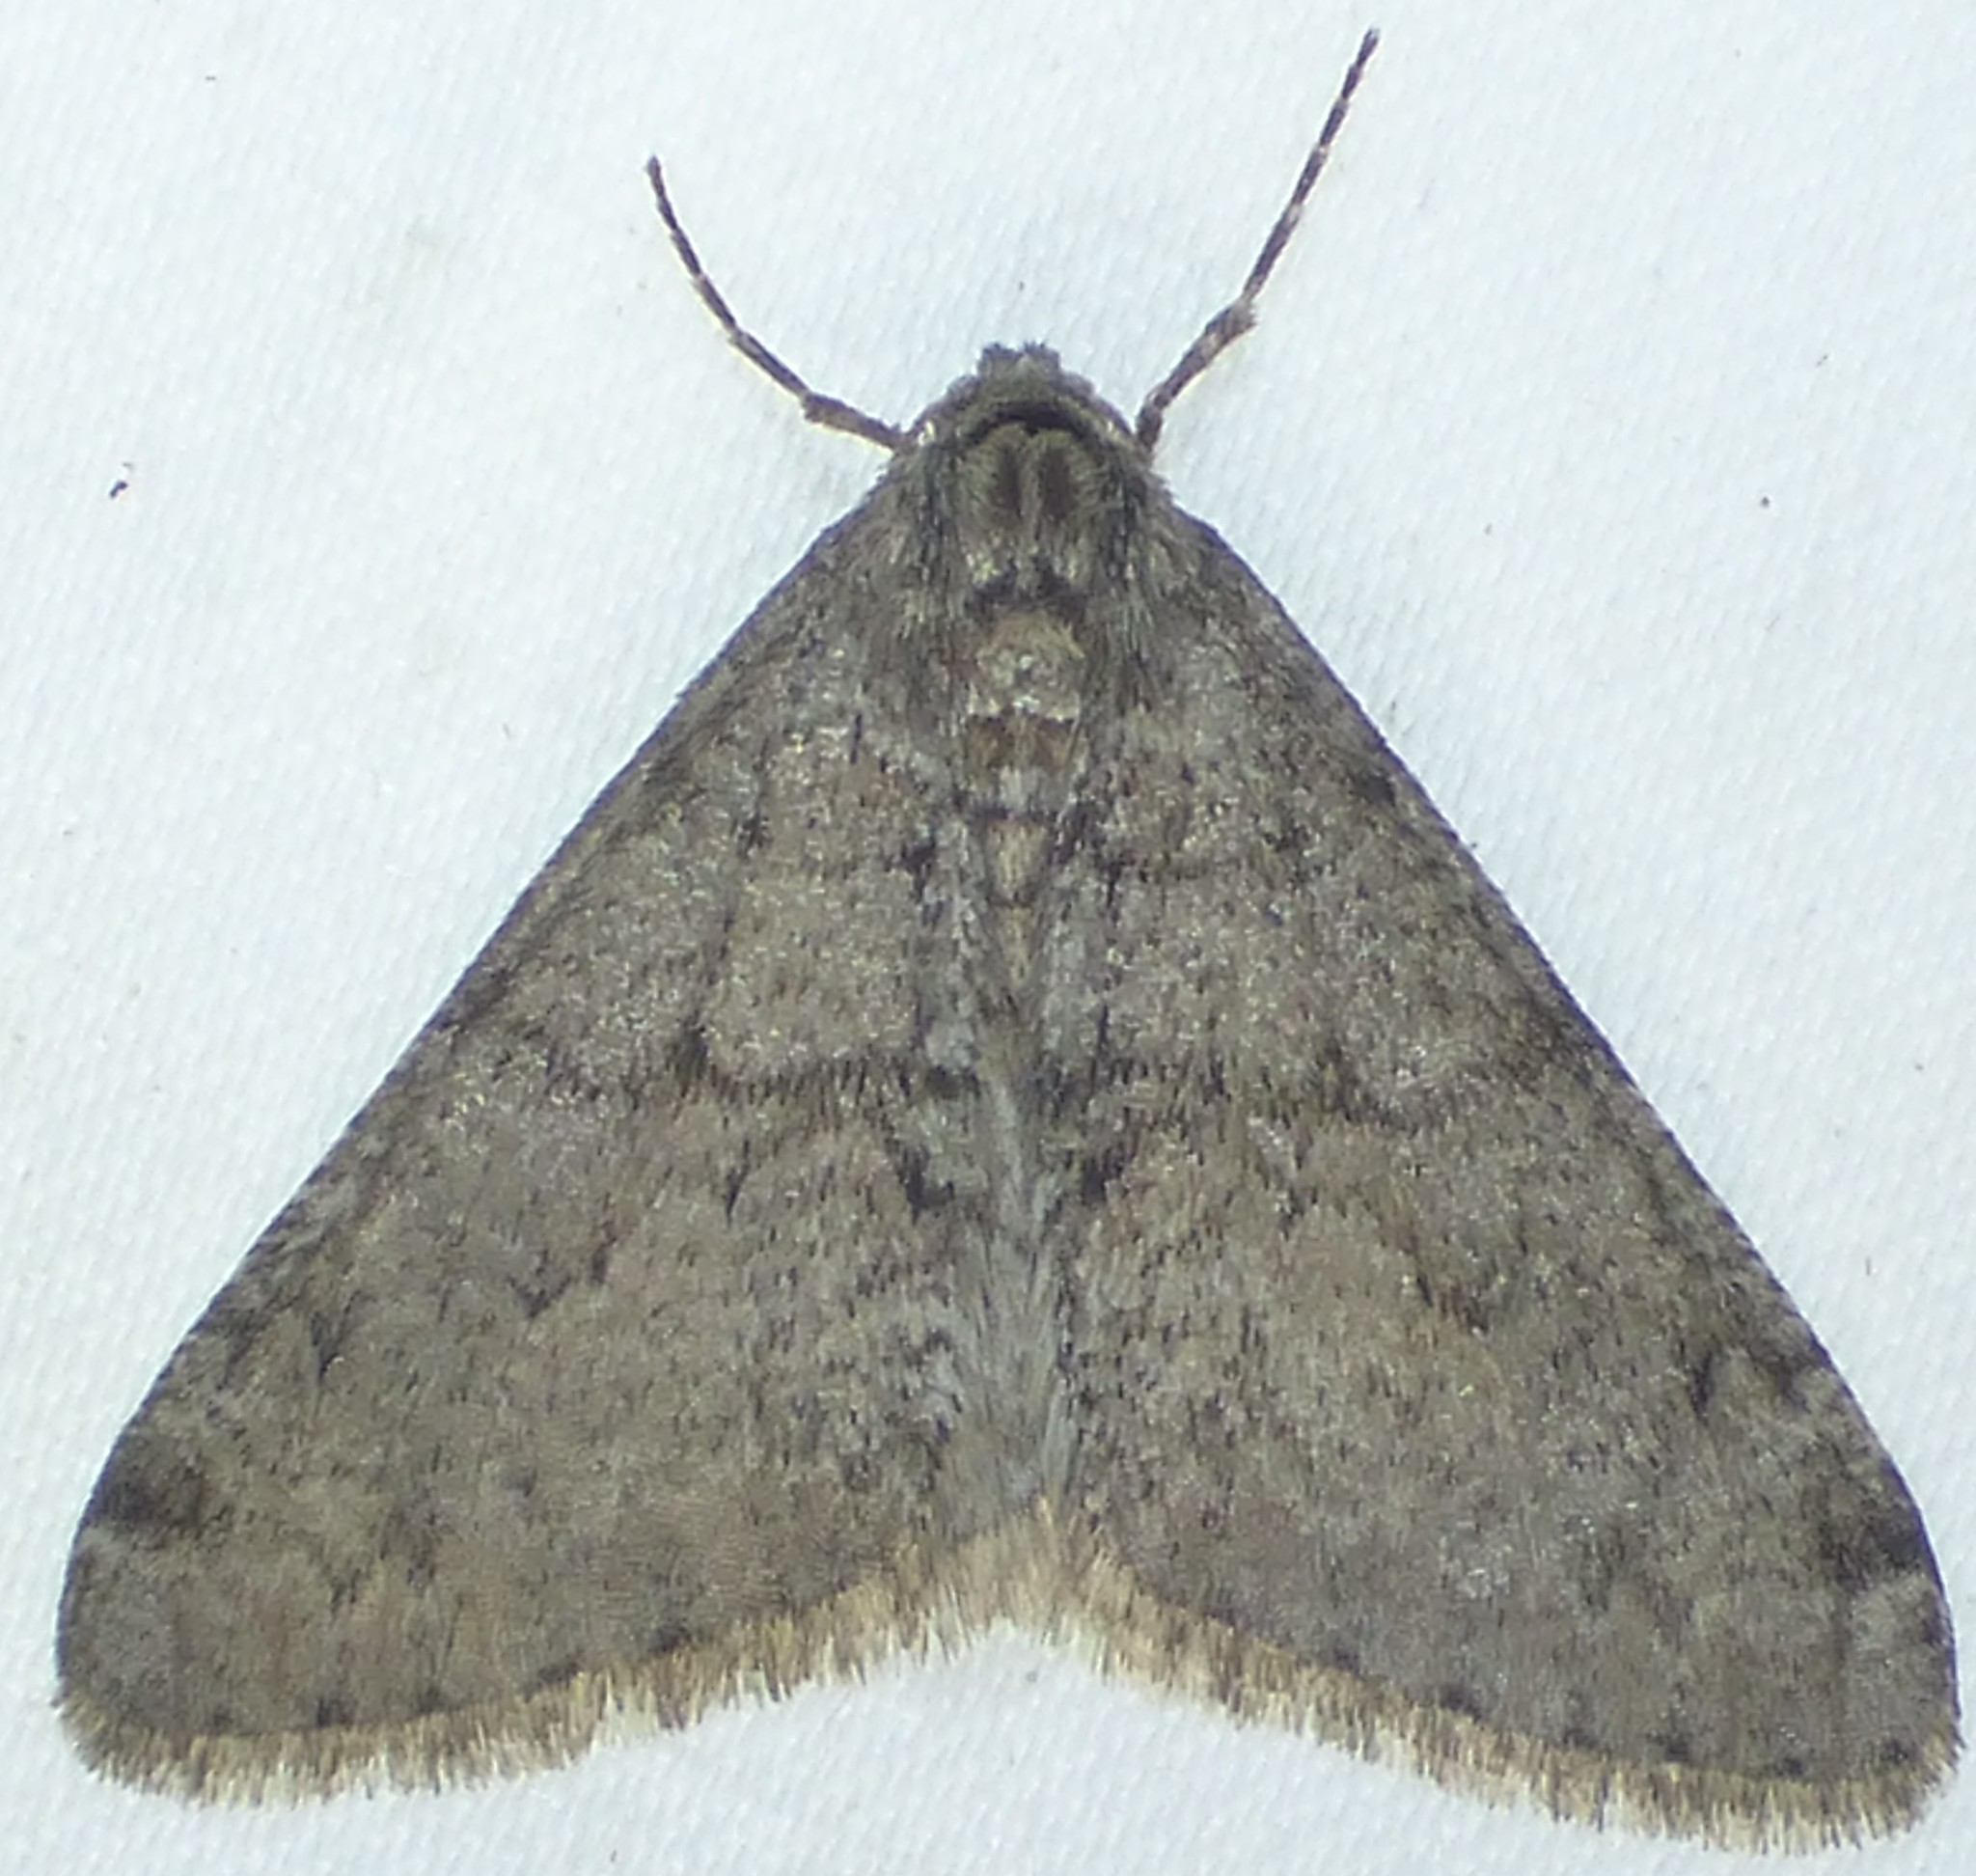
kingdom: Animalia
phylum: Arthropoda
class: Insecta
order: Lepidoptera
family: Geometridae
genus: Phigalia
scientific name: Phigalia strigataria
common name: Small phigalia
